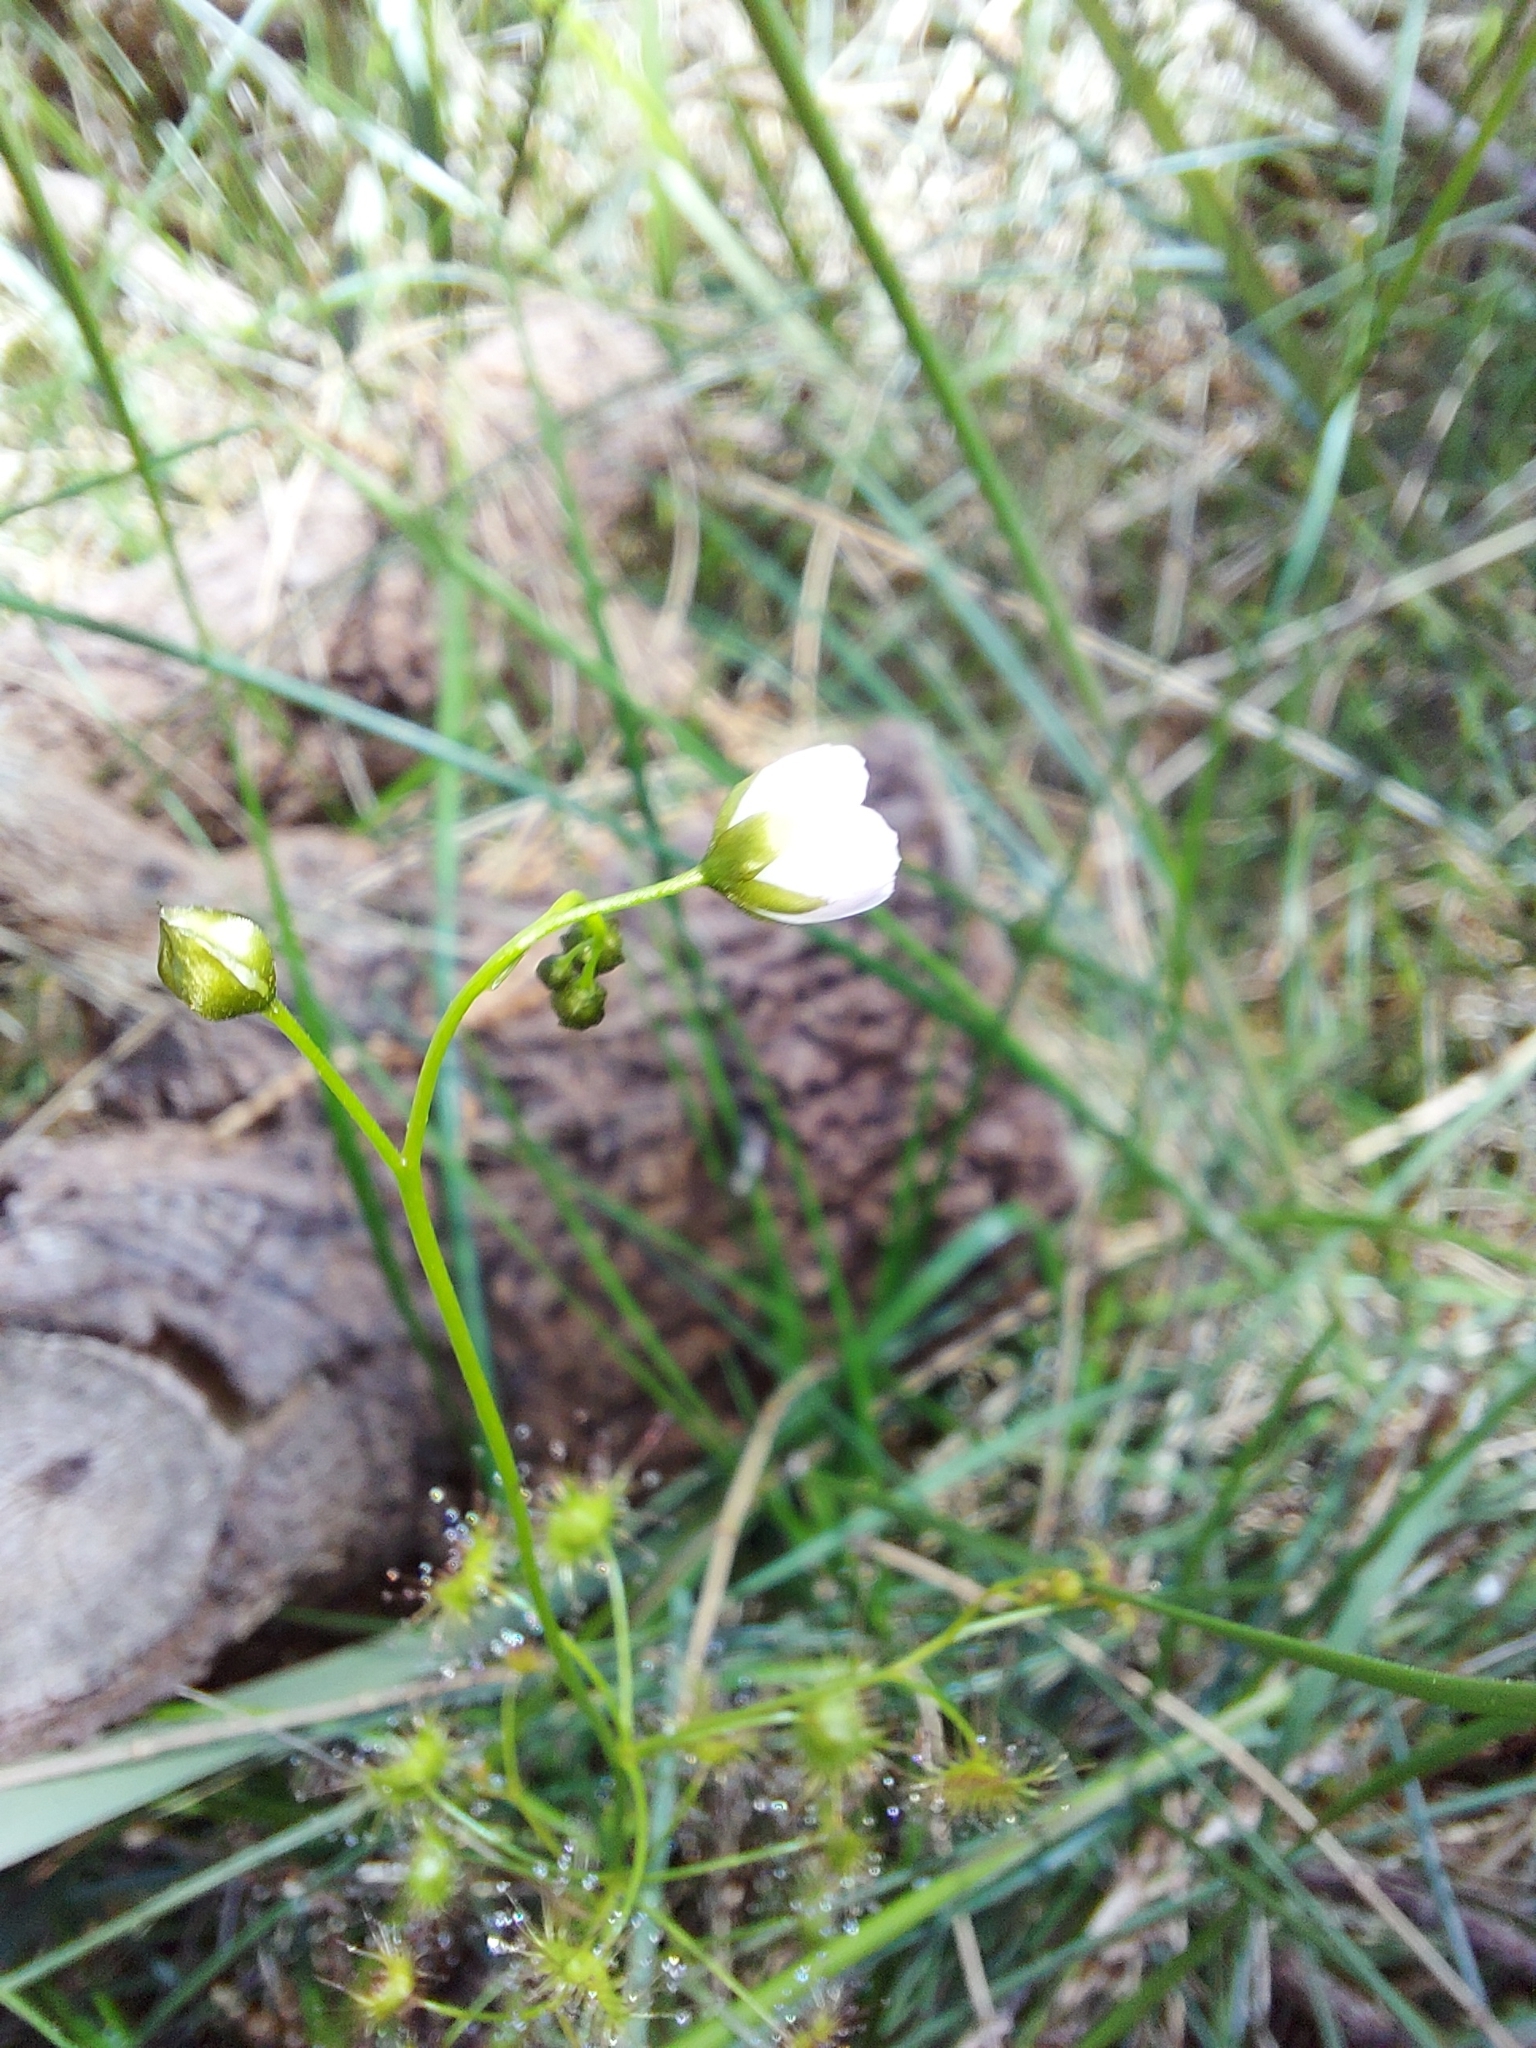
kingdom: Plantae
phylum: Tracheophyta
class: Magnoliopsida
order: Caryophyllales
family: Droseraceae
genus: Drosera
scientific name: Drosera peltata
